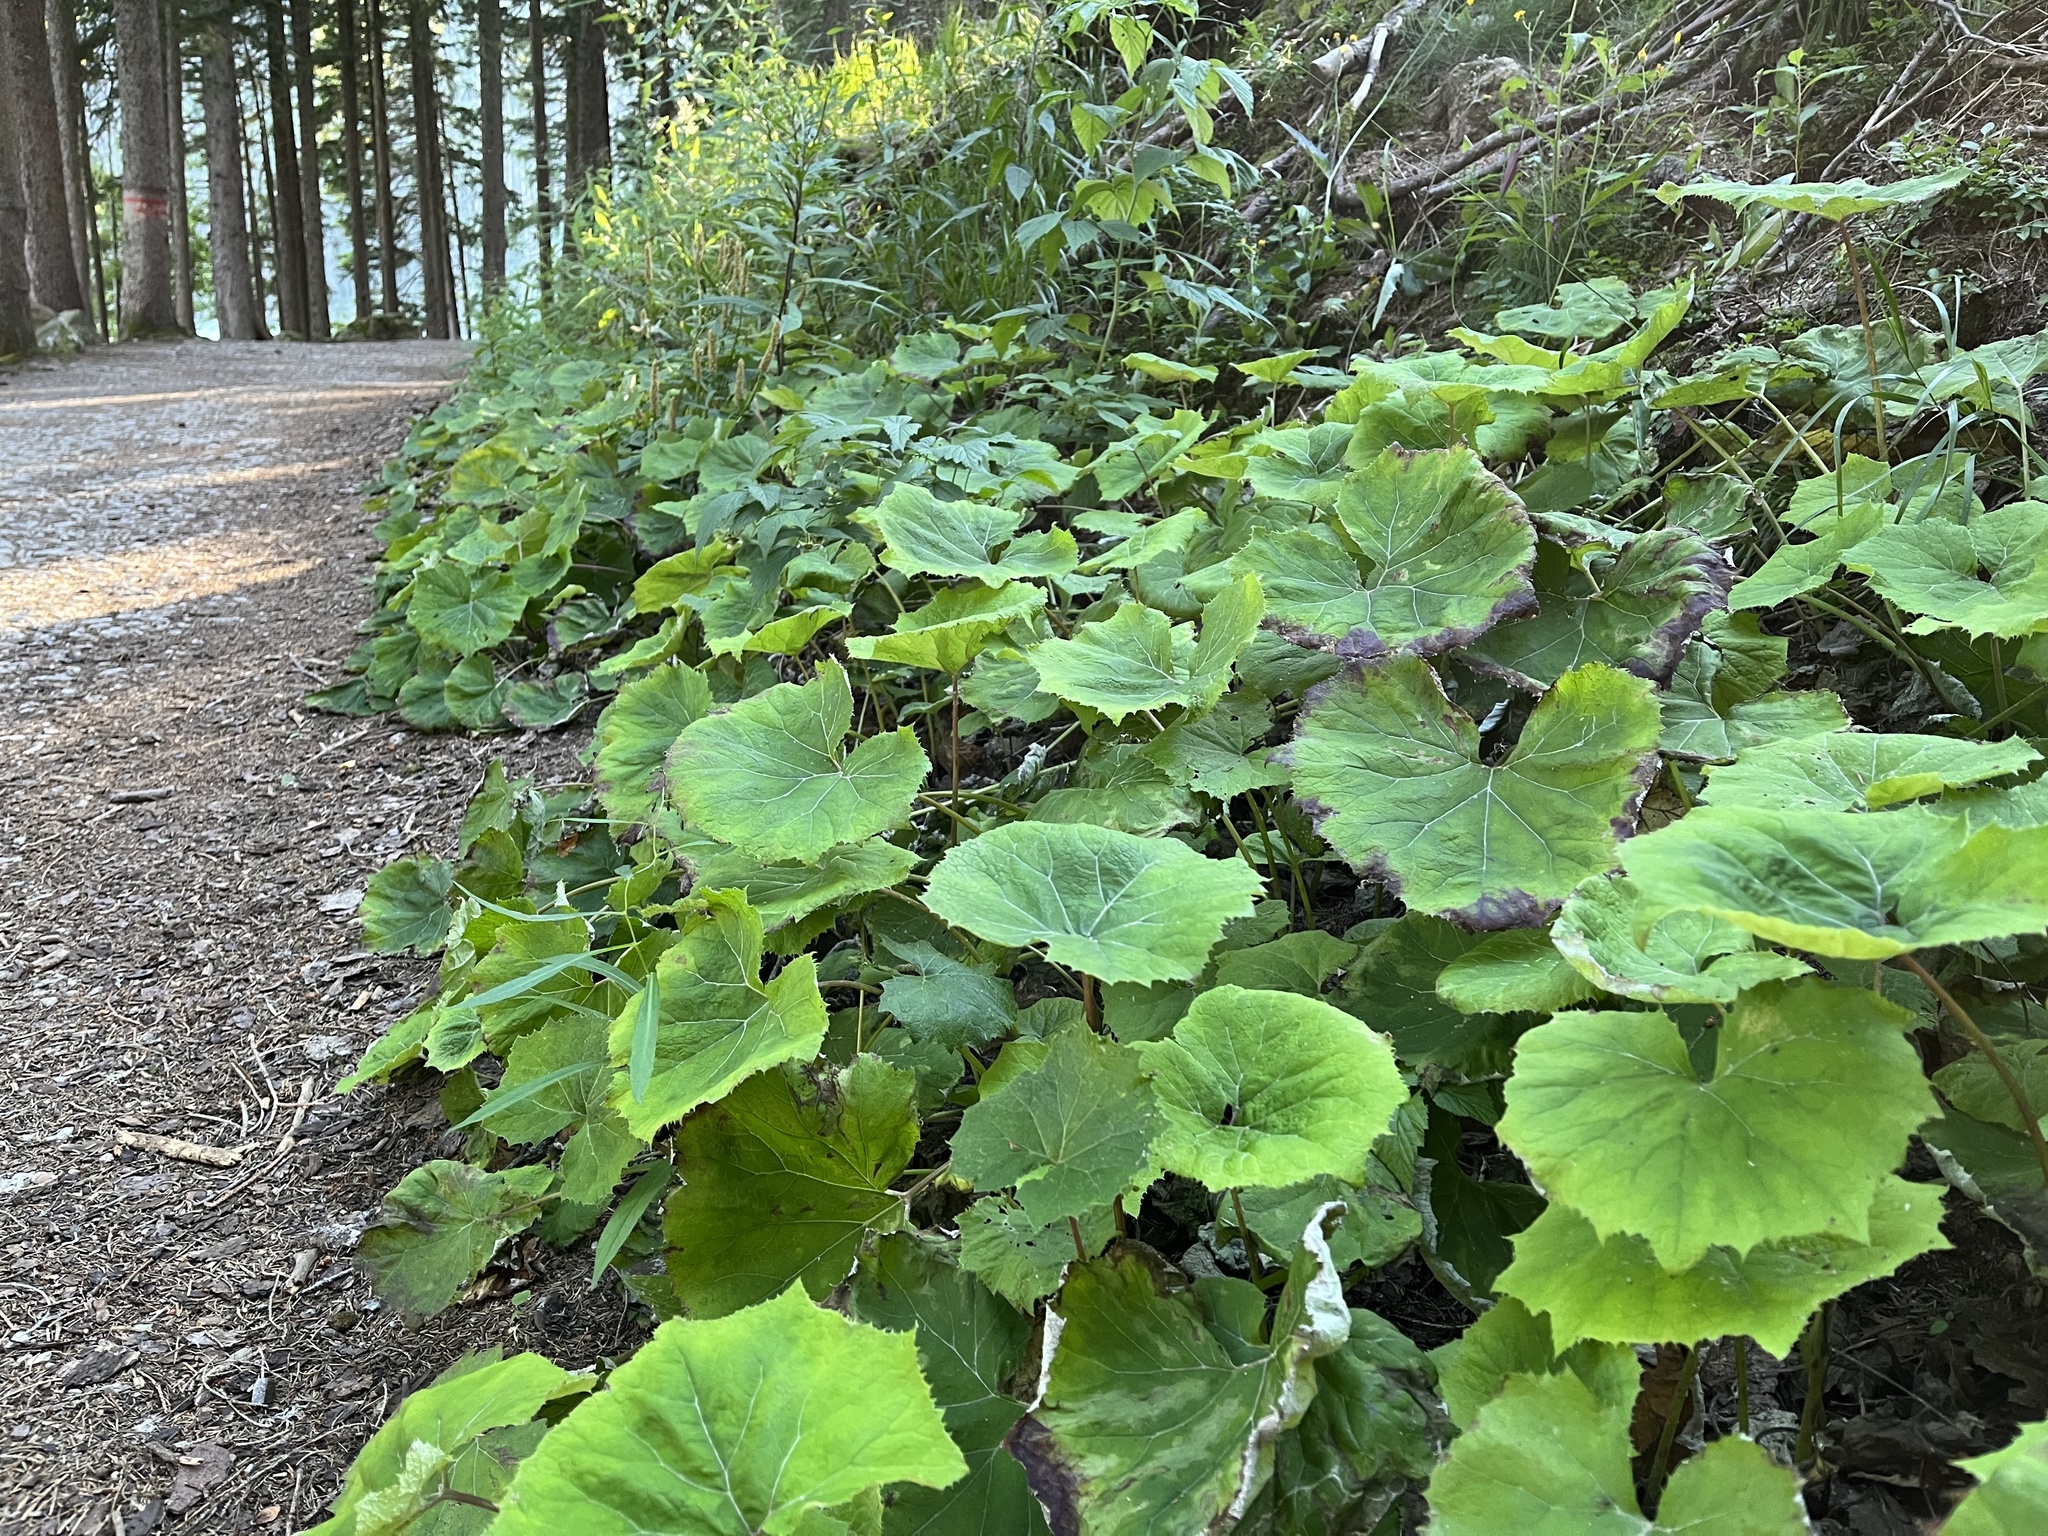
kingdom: Plantae
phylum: Tracheophyta
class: Magnoliopsida
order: Asterales
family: Asteraceae
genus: Petasites
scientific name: Petasites albus
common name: White butterbur
